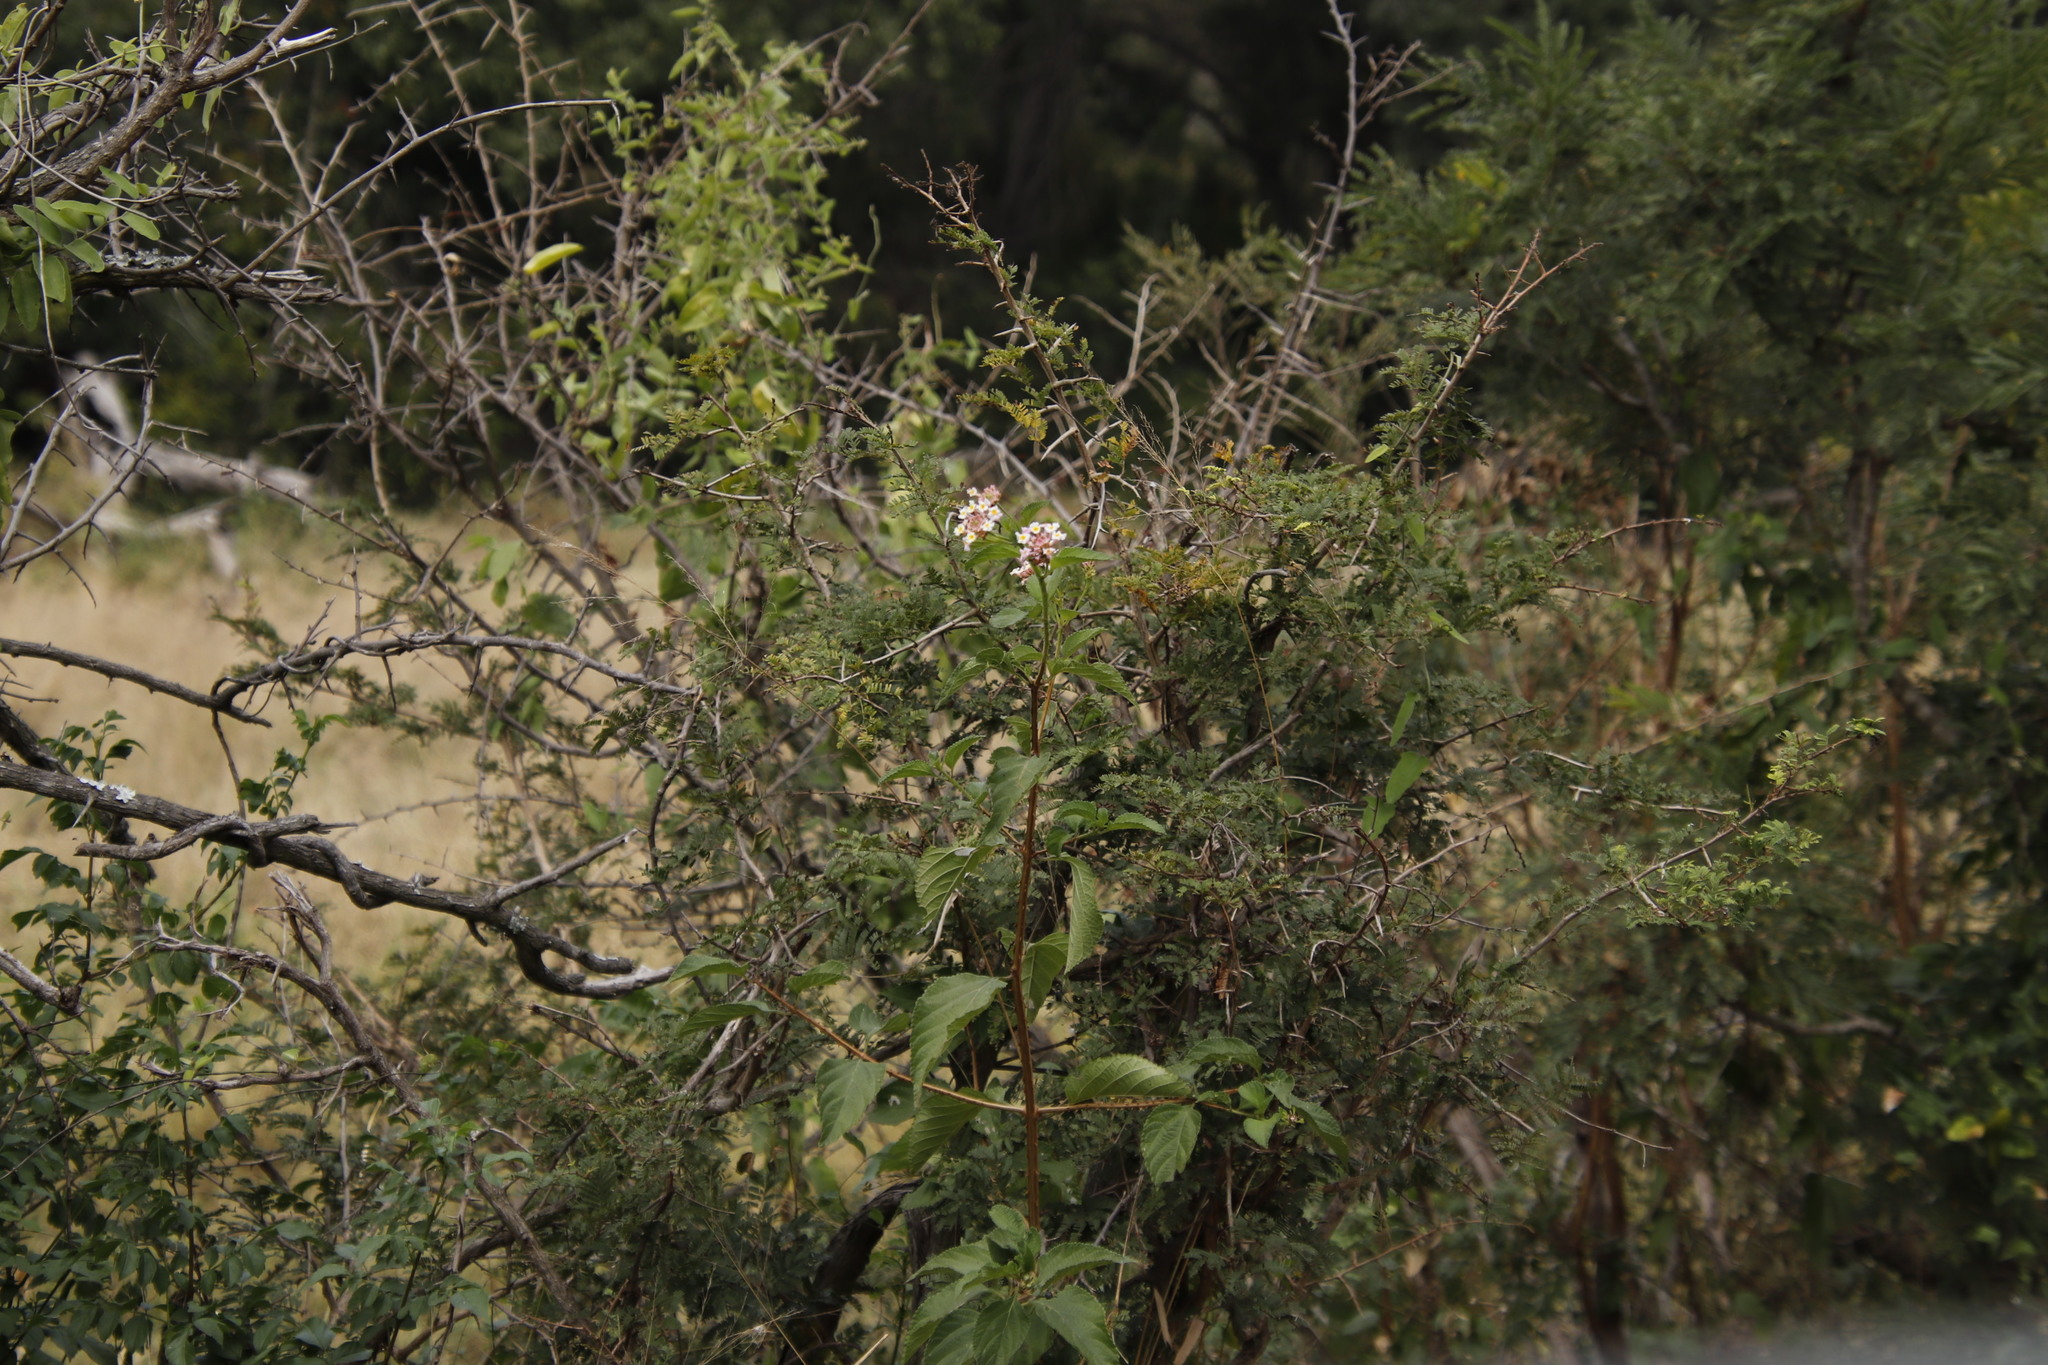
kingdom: Plantae
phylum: Tracheophyta
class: Magnoliopsida
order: Lamiales
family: Verbenaceae
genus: Lantana
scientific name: Lantana camara
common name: Lantana
